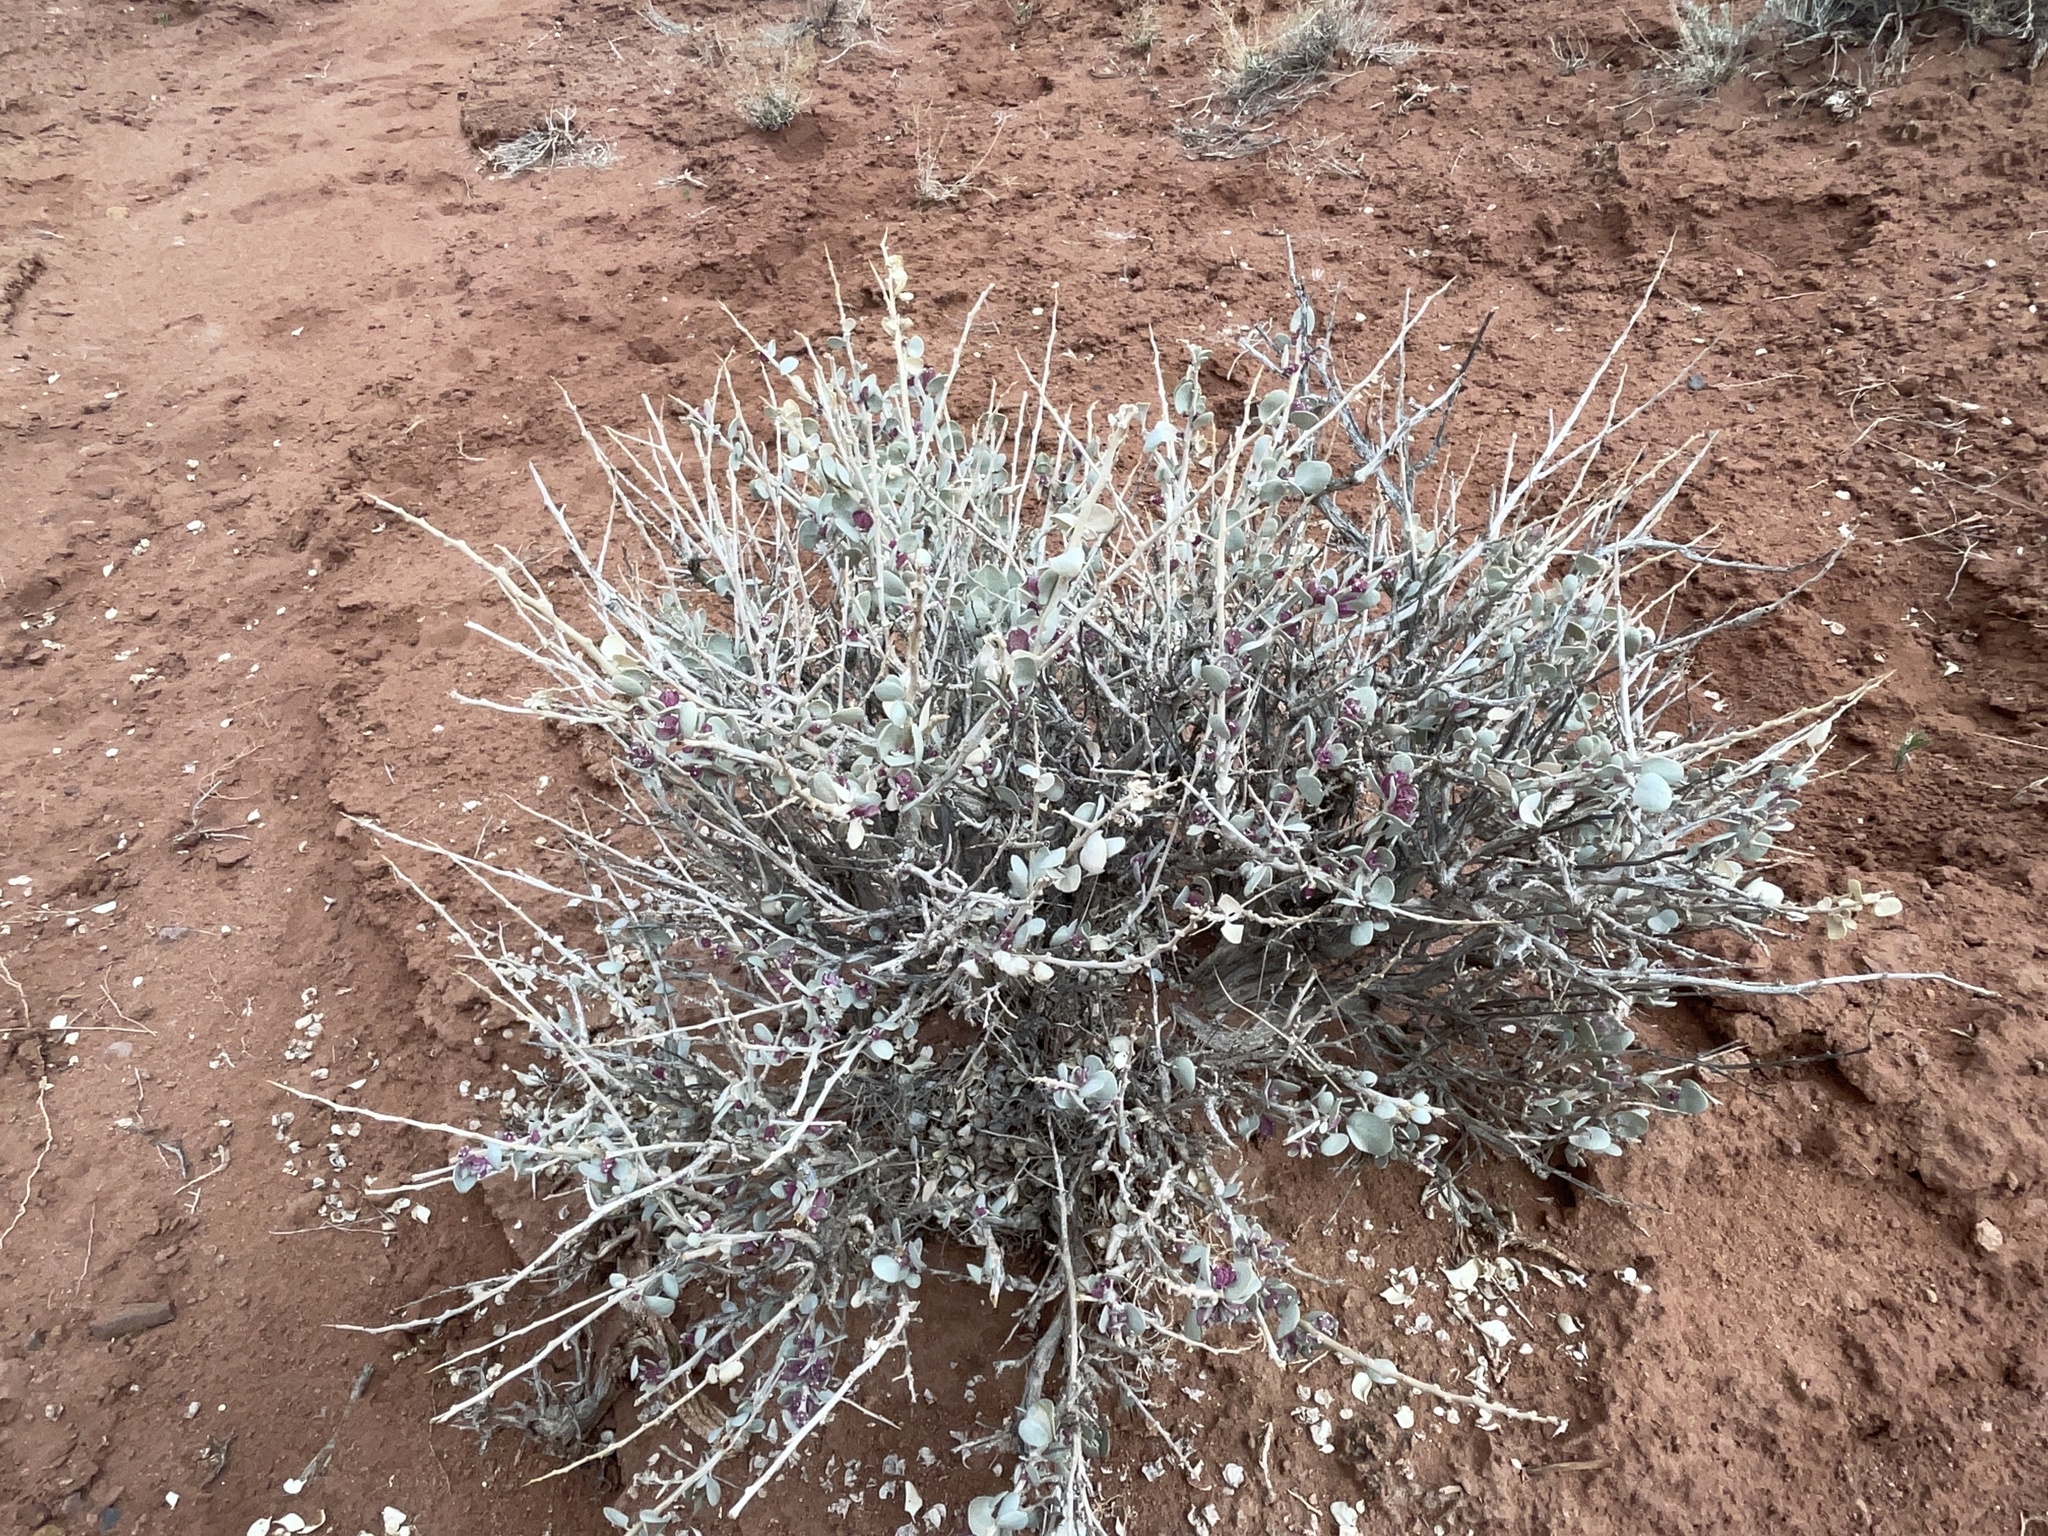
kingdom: Plantae
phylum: Tracheophyta
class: Magnoliopsida
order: Caryophyllales
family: Amaranthaceae
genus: Atriplex
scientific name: Atriplex confertifolia
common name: Shadscale
